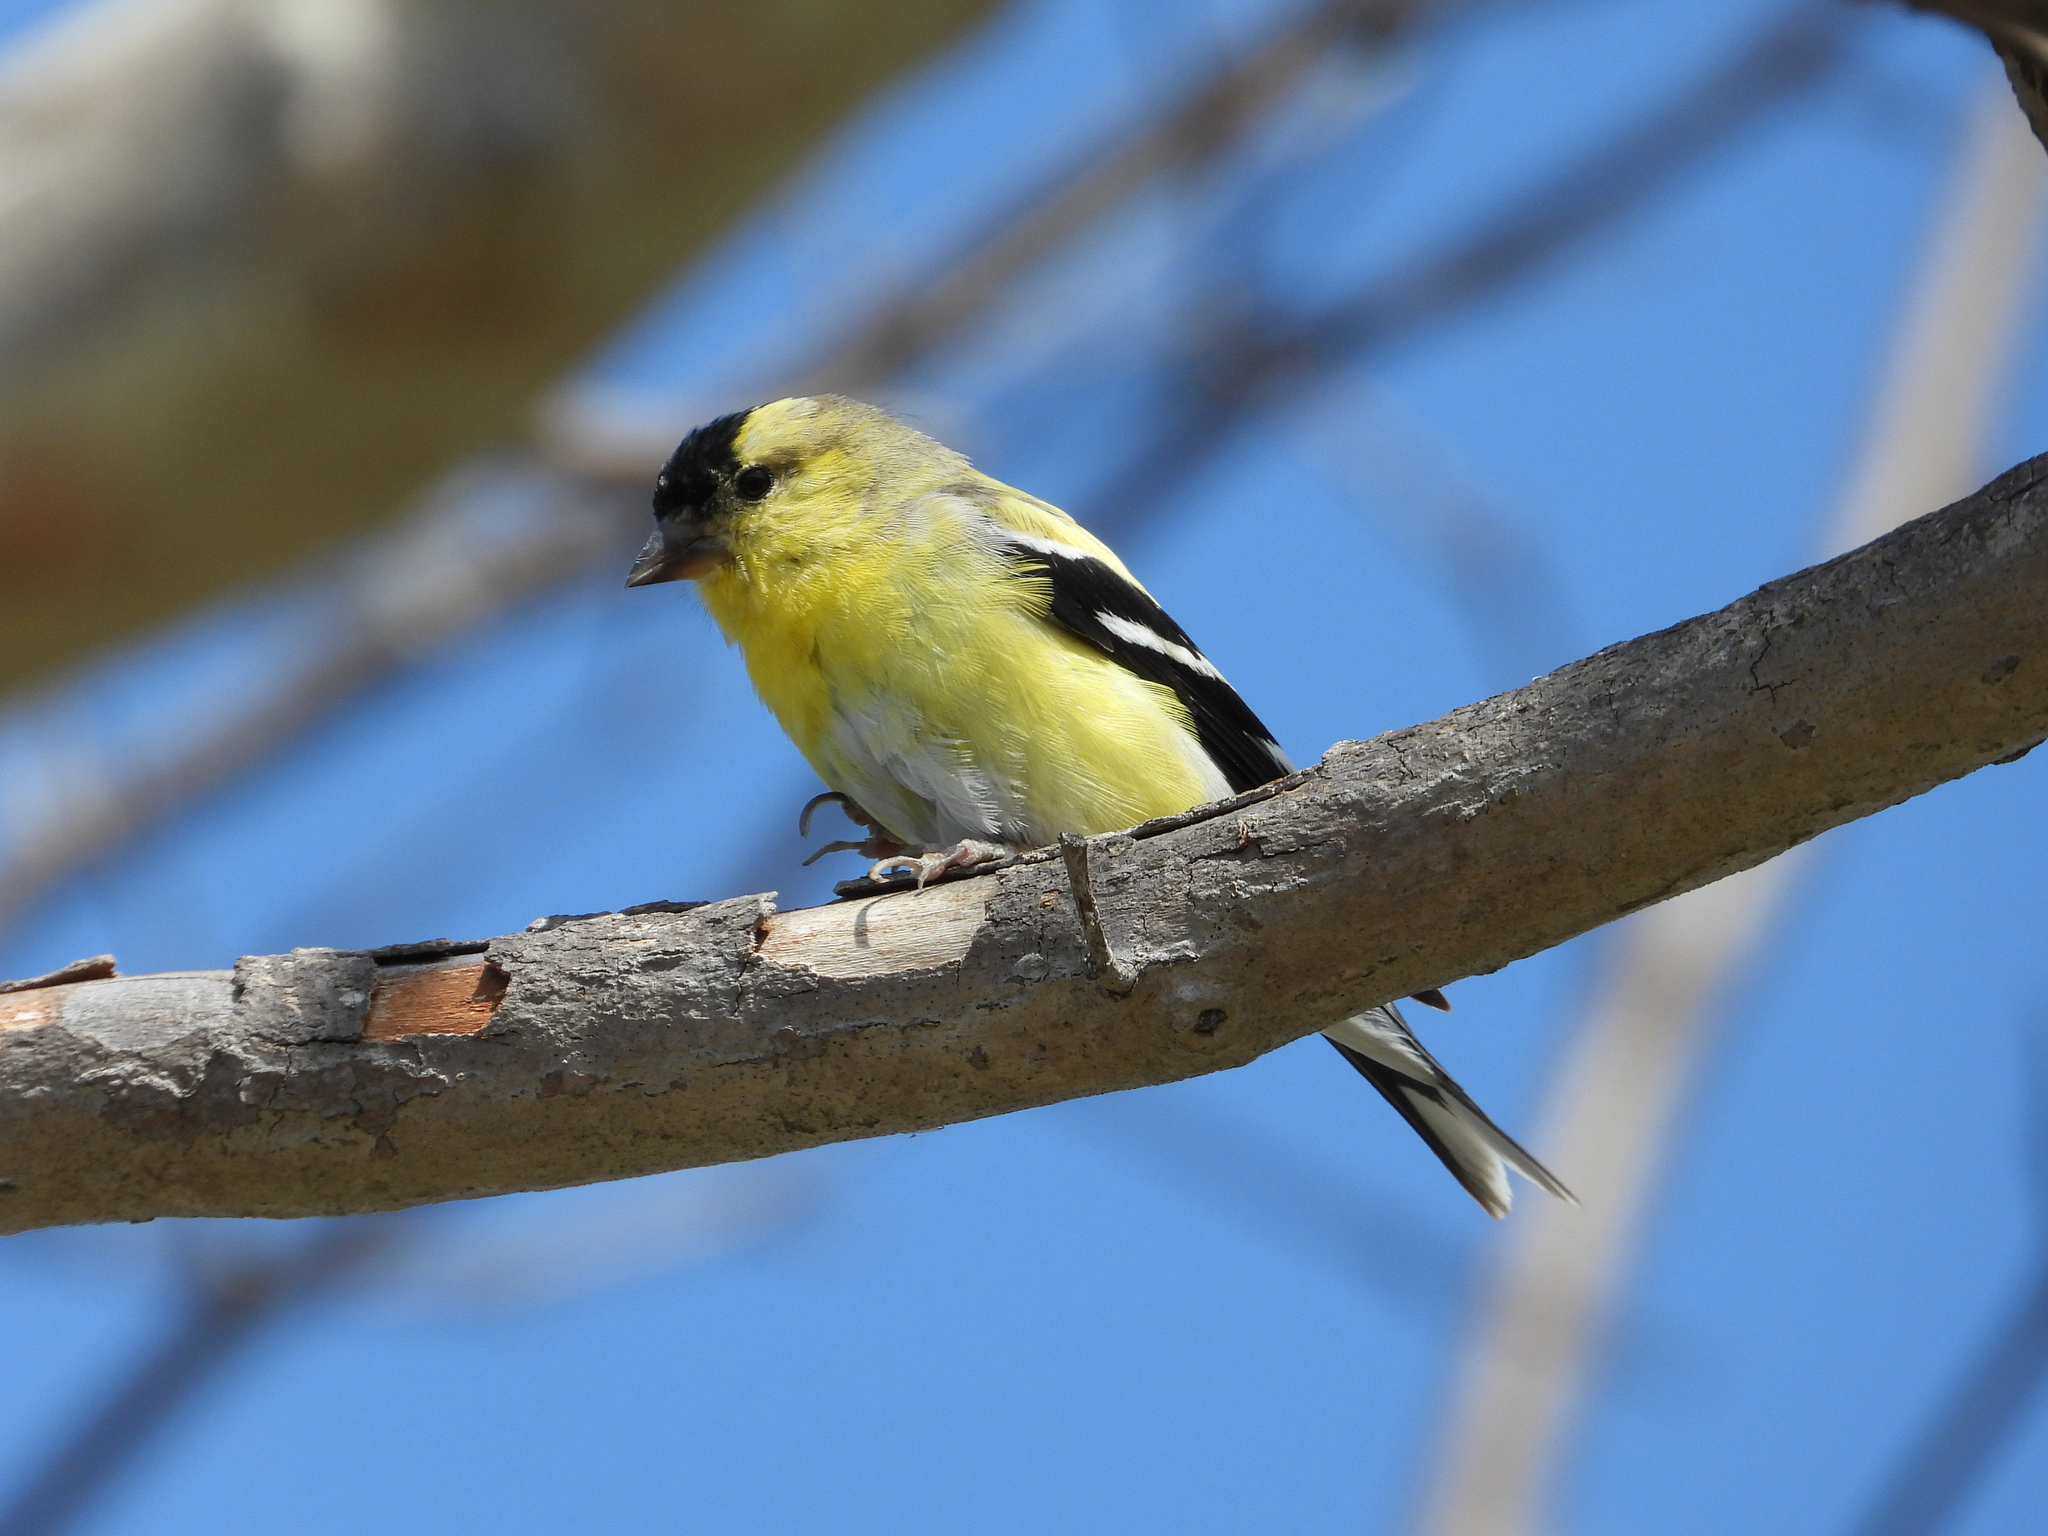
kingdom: Animalia
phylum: Chordata
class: Aves
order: Passeriformes
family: Fringillidae
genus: Spinus
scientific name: Spinus tristis
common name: American goldfinch
